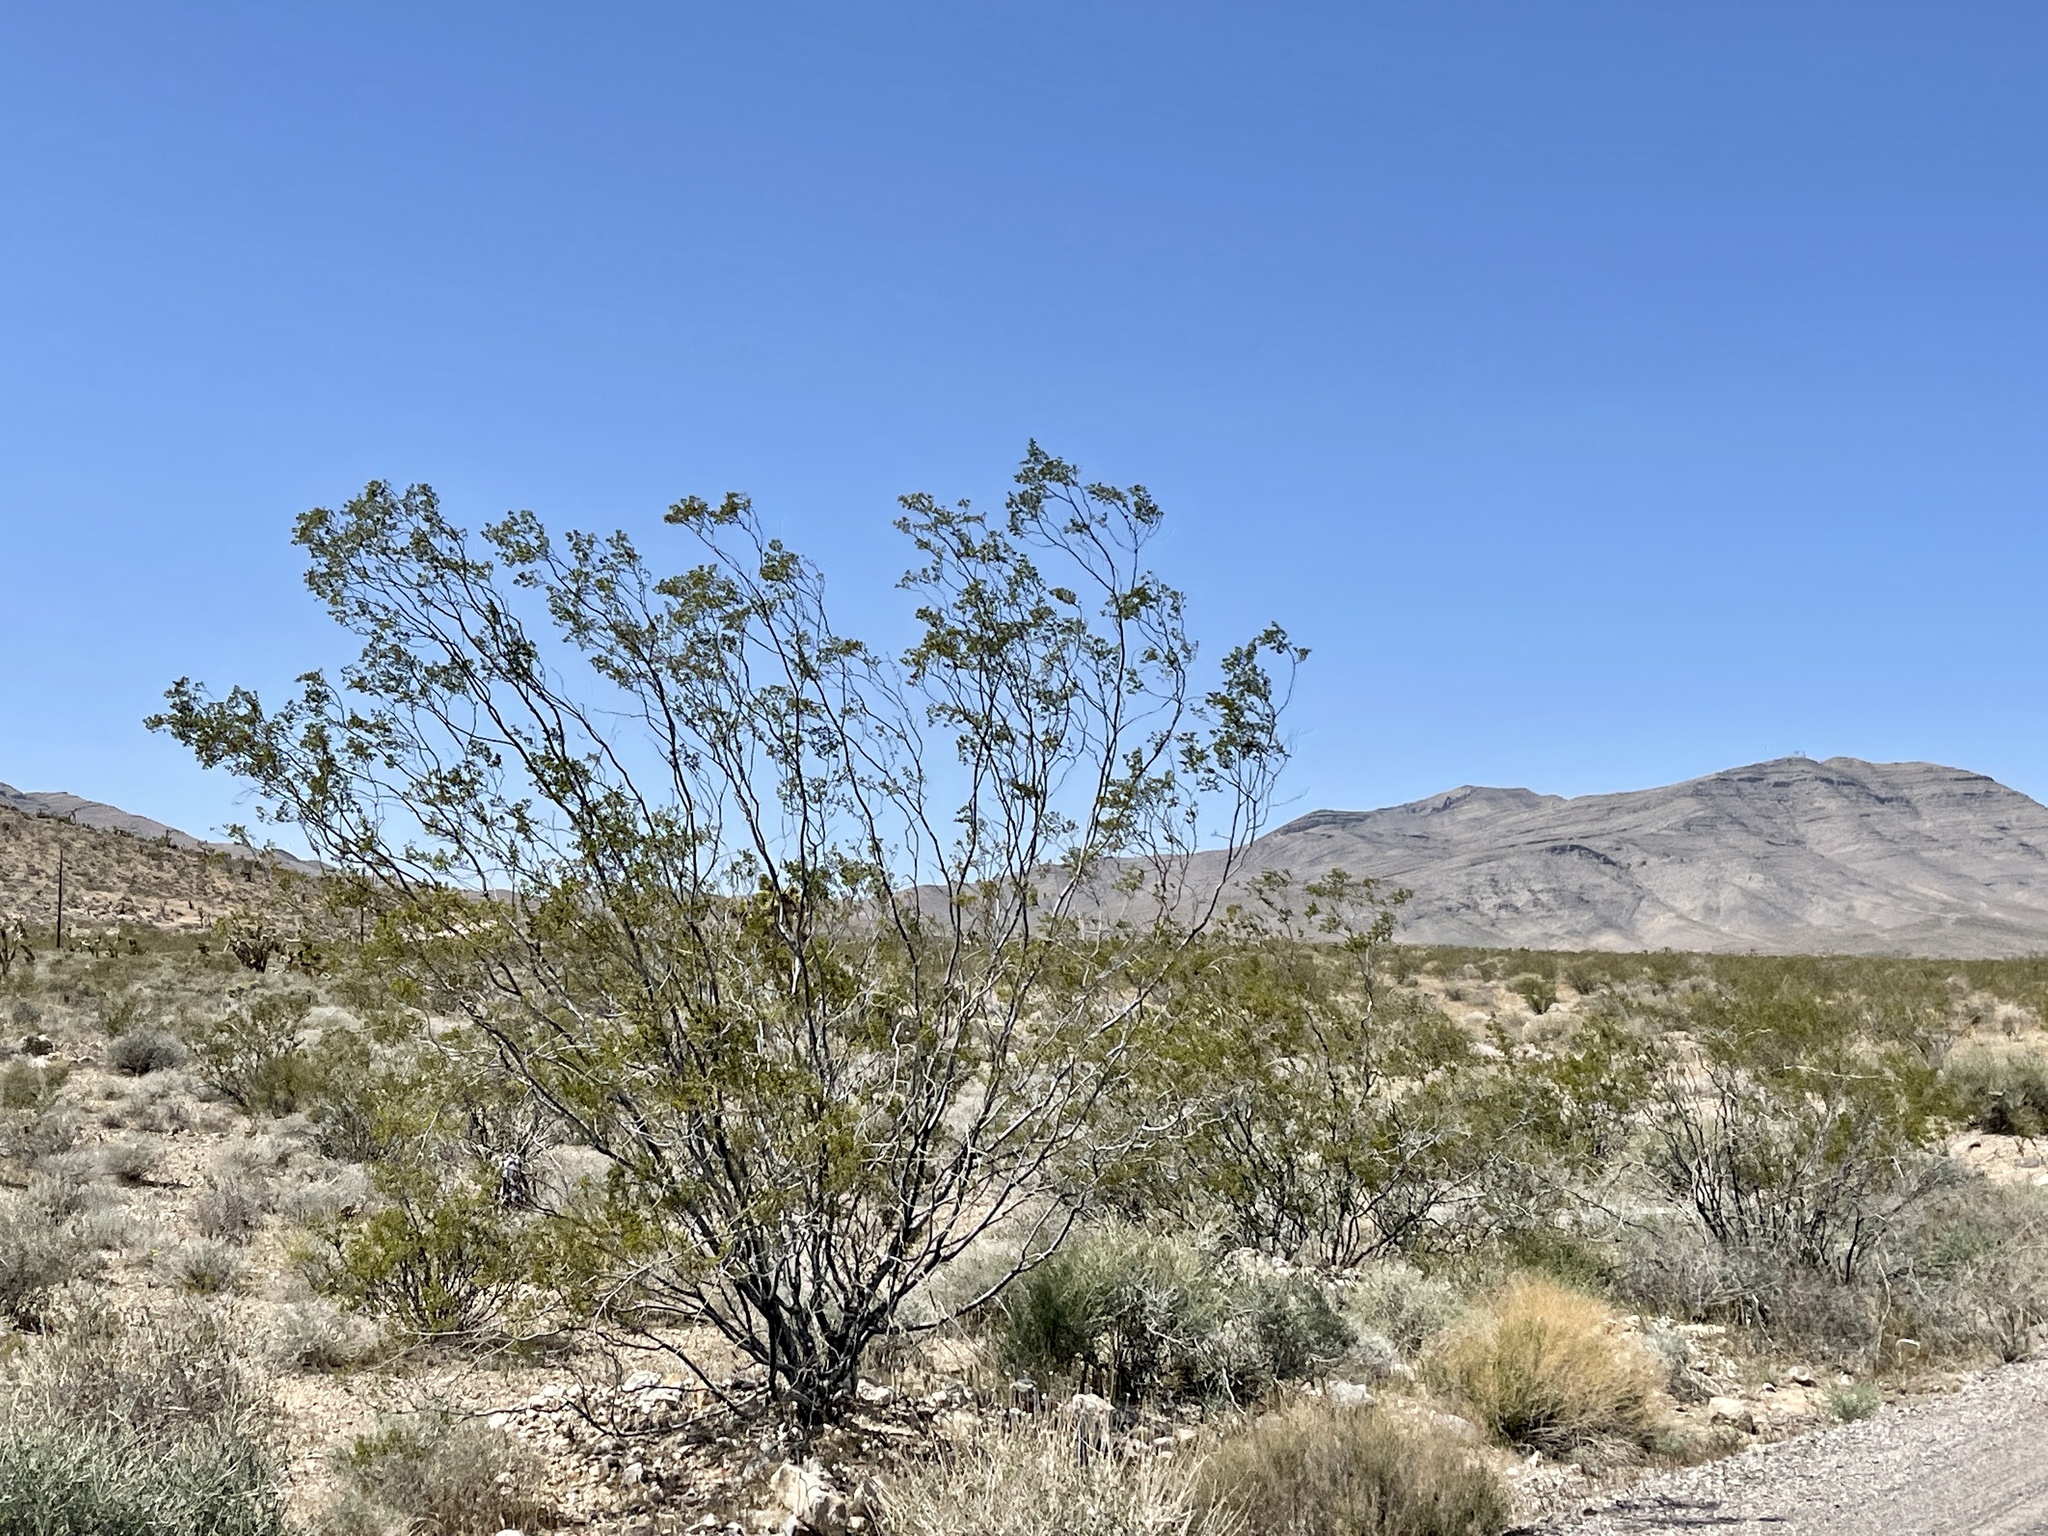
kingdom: Plantae
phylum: Tracheophyta
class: Magnoliopsida
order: Zygophyllales
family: Zygophyllaceae
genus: Larrea
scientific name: Larrea tridentata
